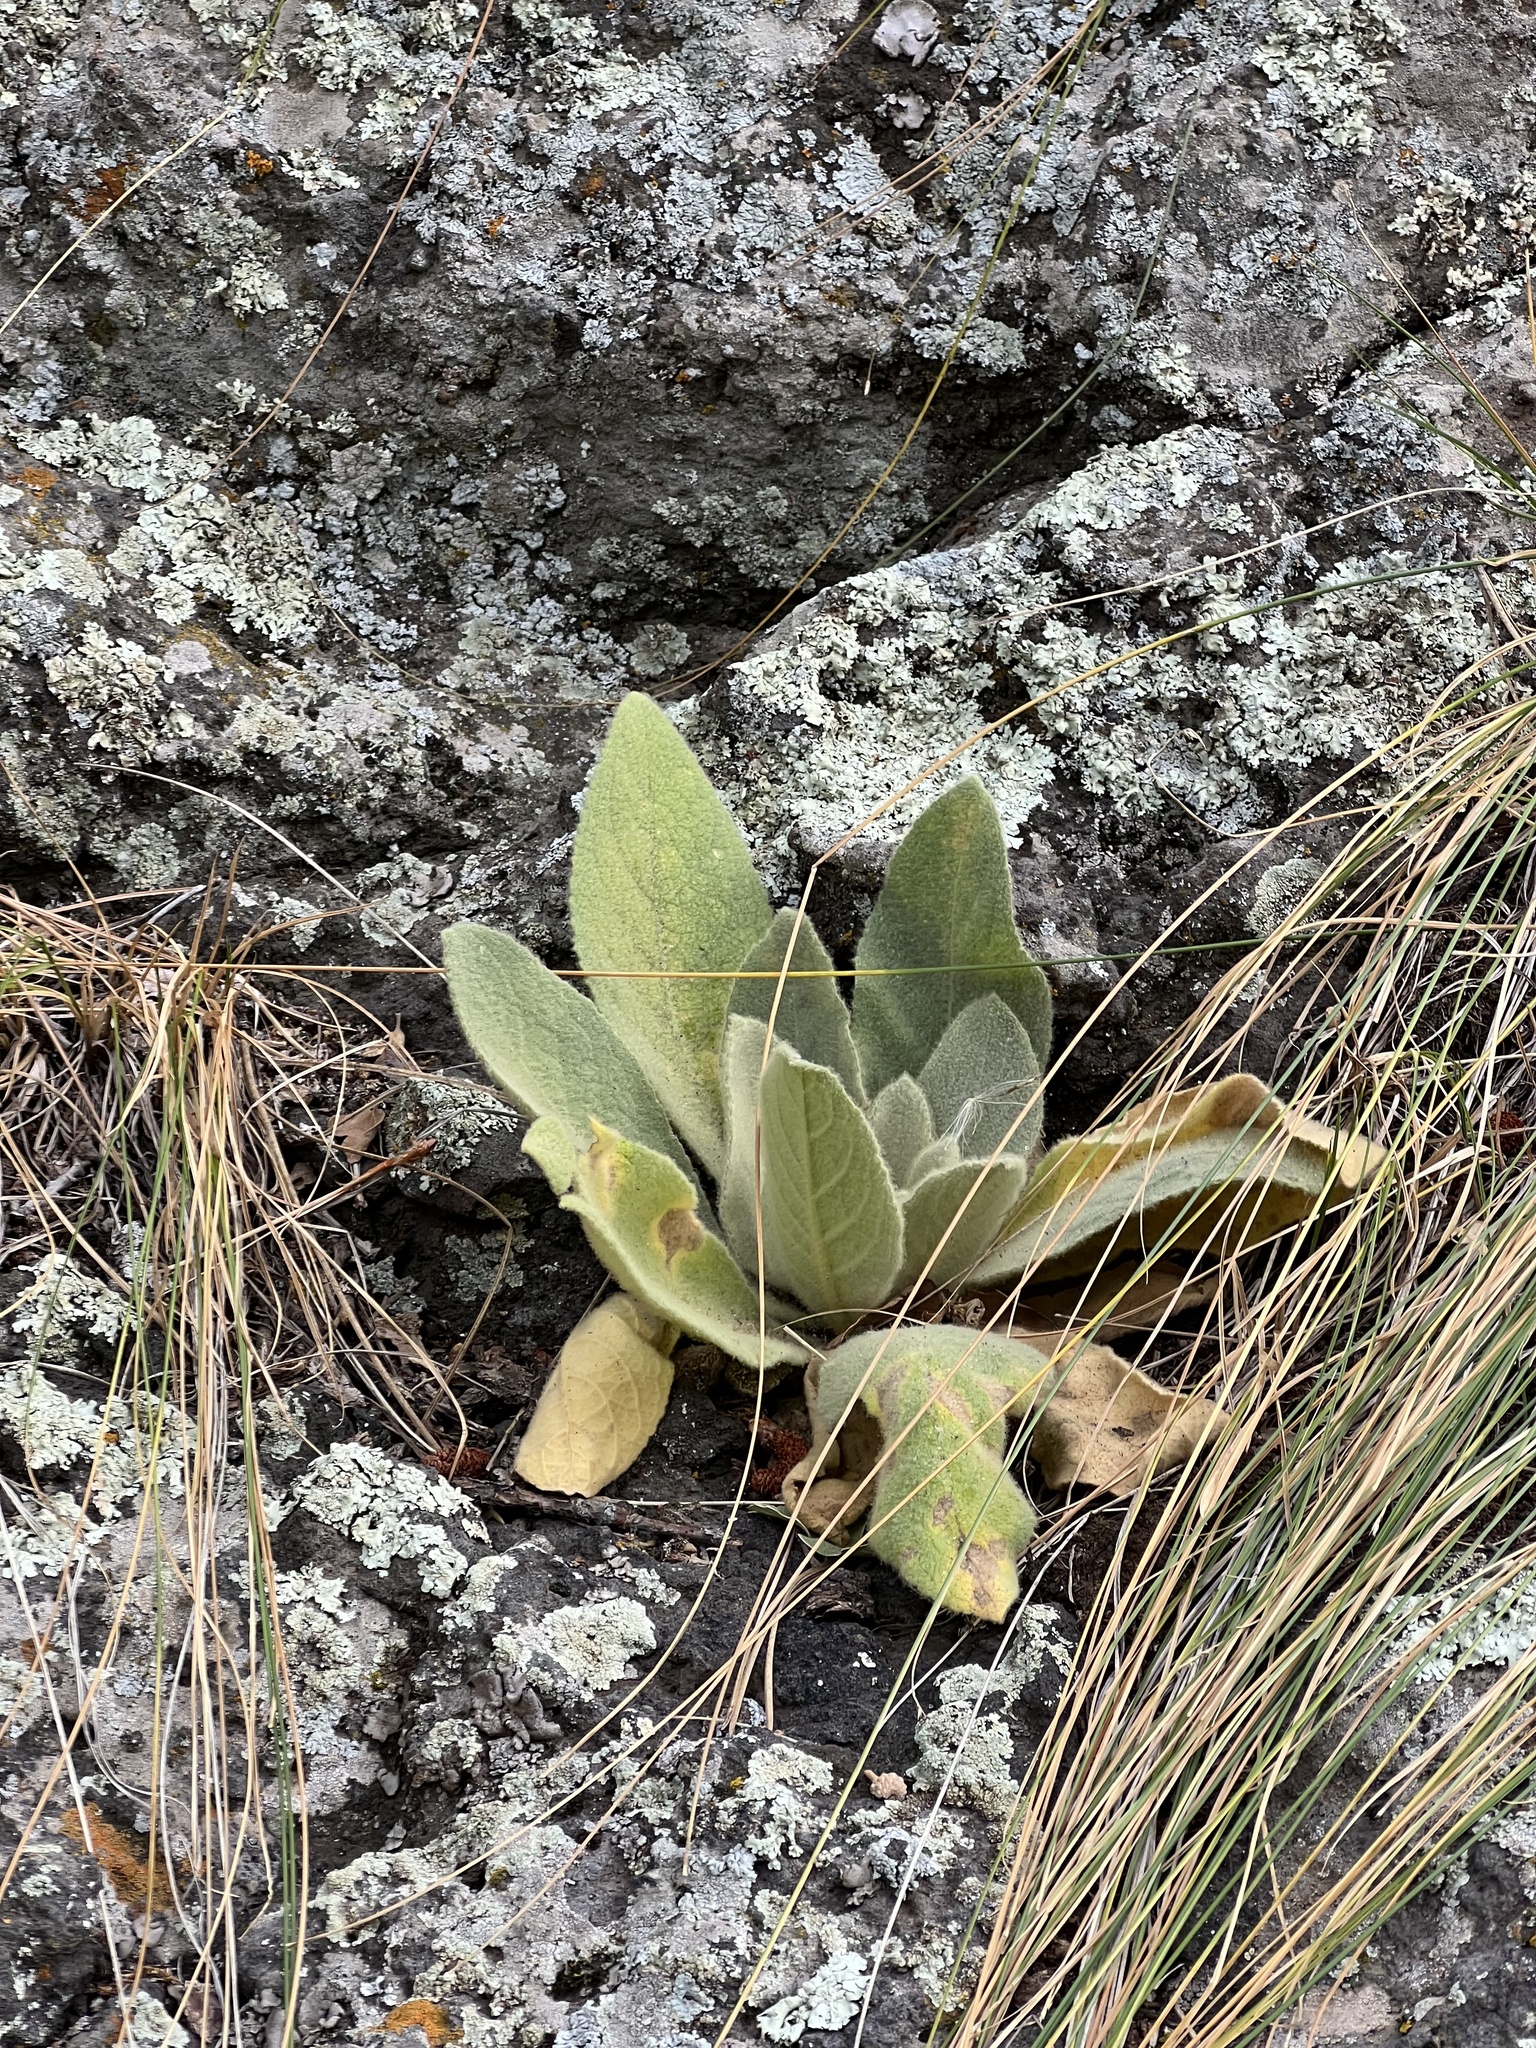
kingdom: Plantae
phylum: Tracheophyta
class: Magnoliopsida
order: Lamiales
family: Scrophulariaceae
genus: Verbascum
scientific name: Verbascum thapsus
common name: Common mullein
